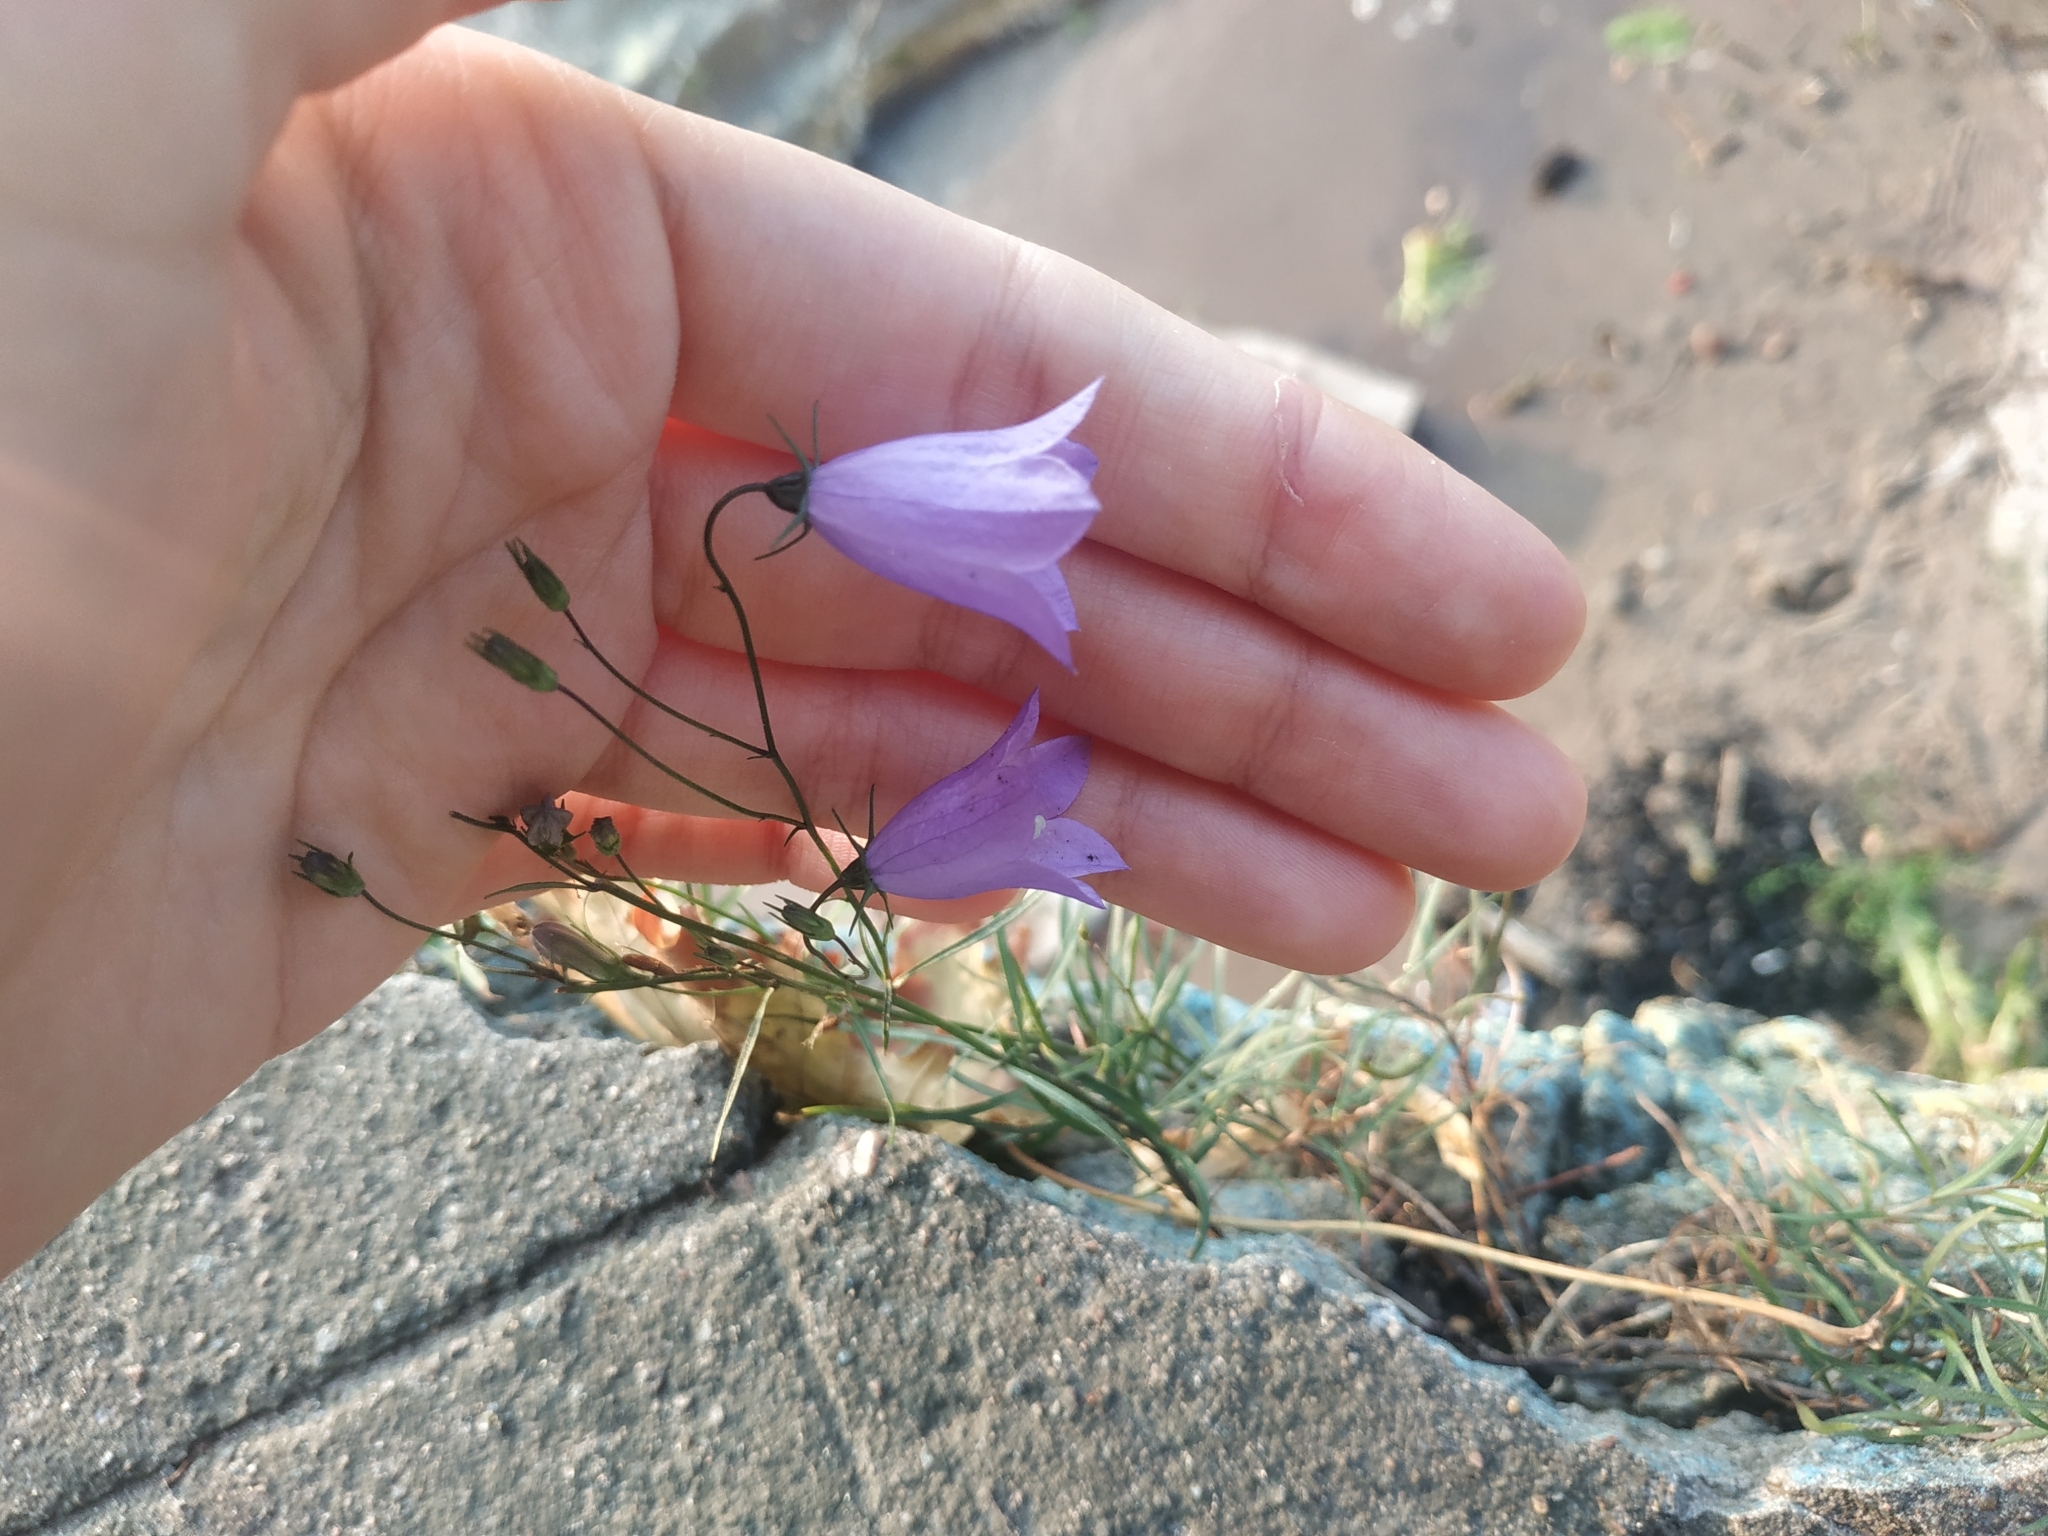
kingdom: Plantae
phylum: Tracheophyta
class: Magnoliopsida
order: Asterales
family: Campanulaceae
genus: Campanula
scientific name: Campanula rotundifolia
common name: Harebell
